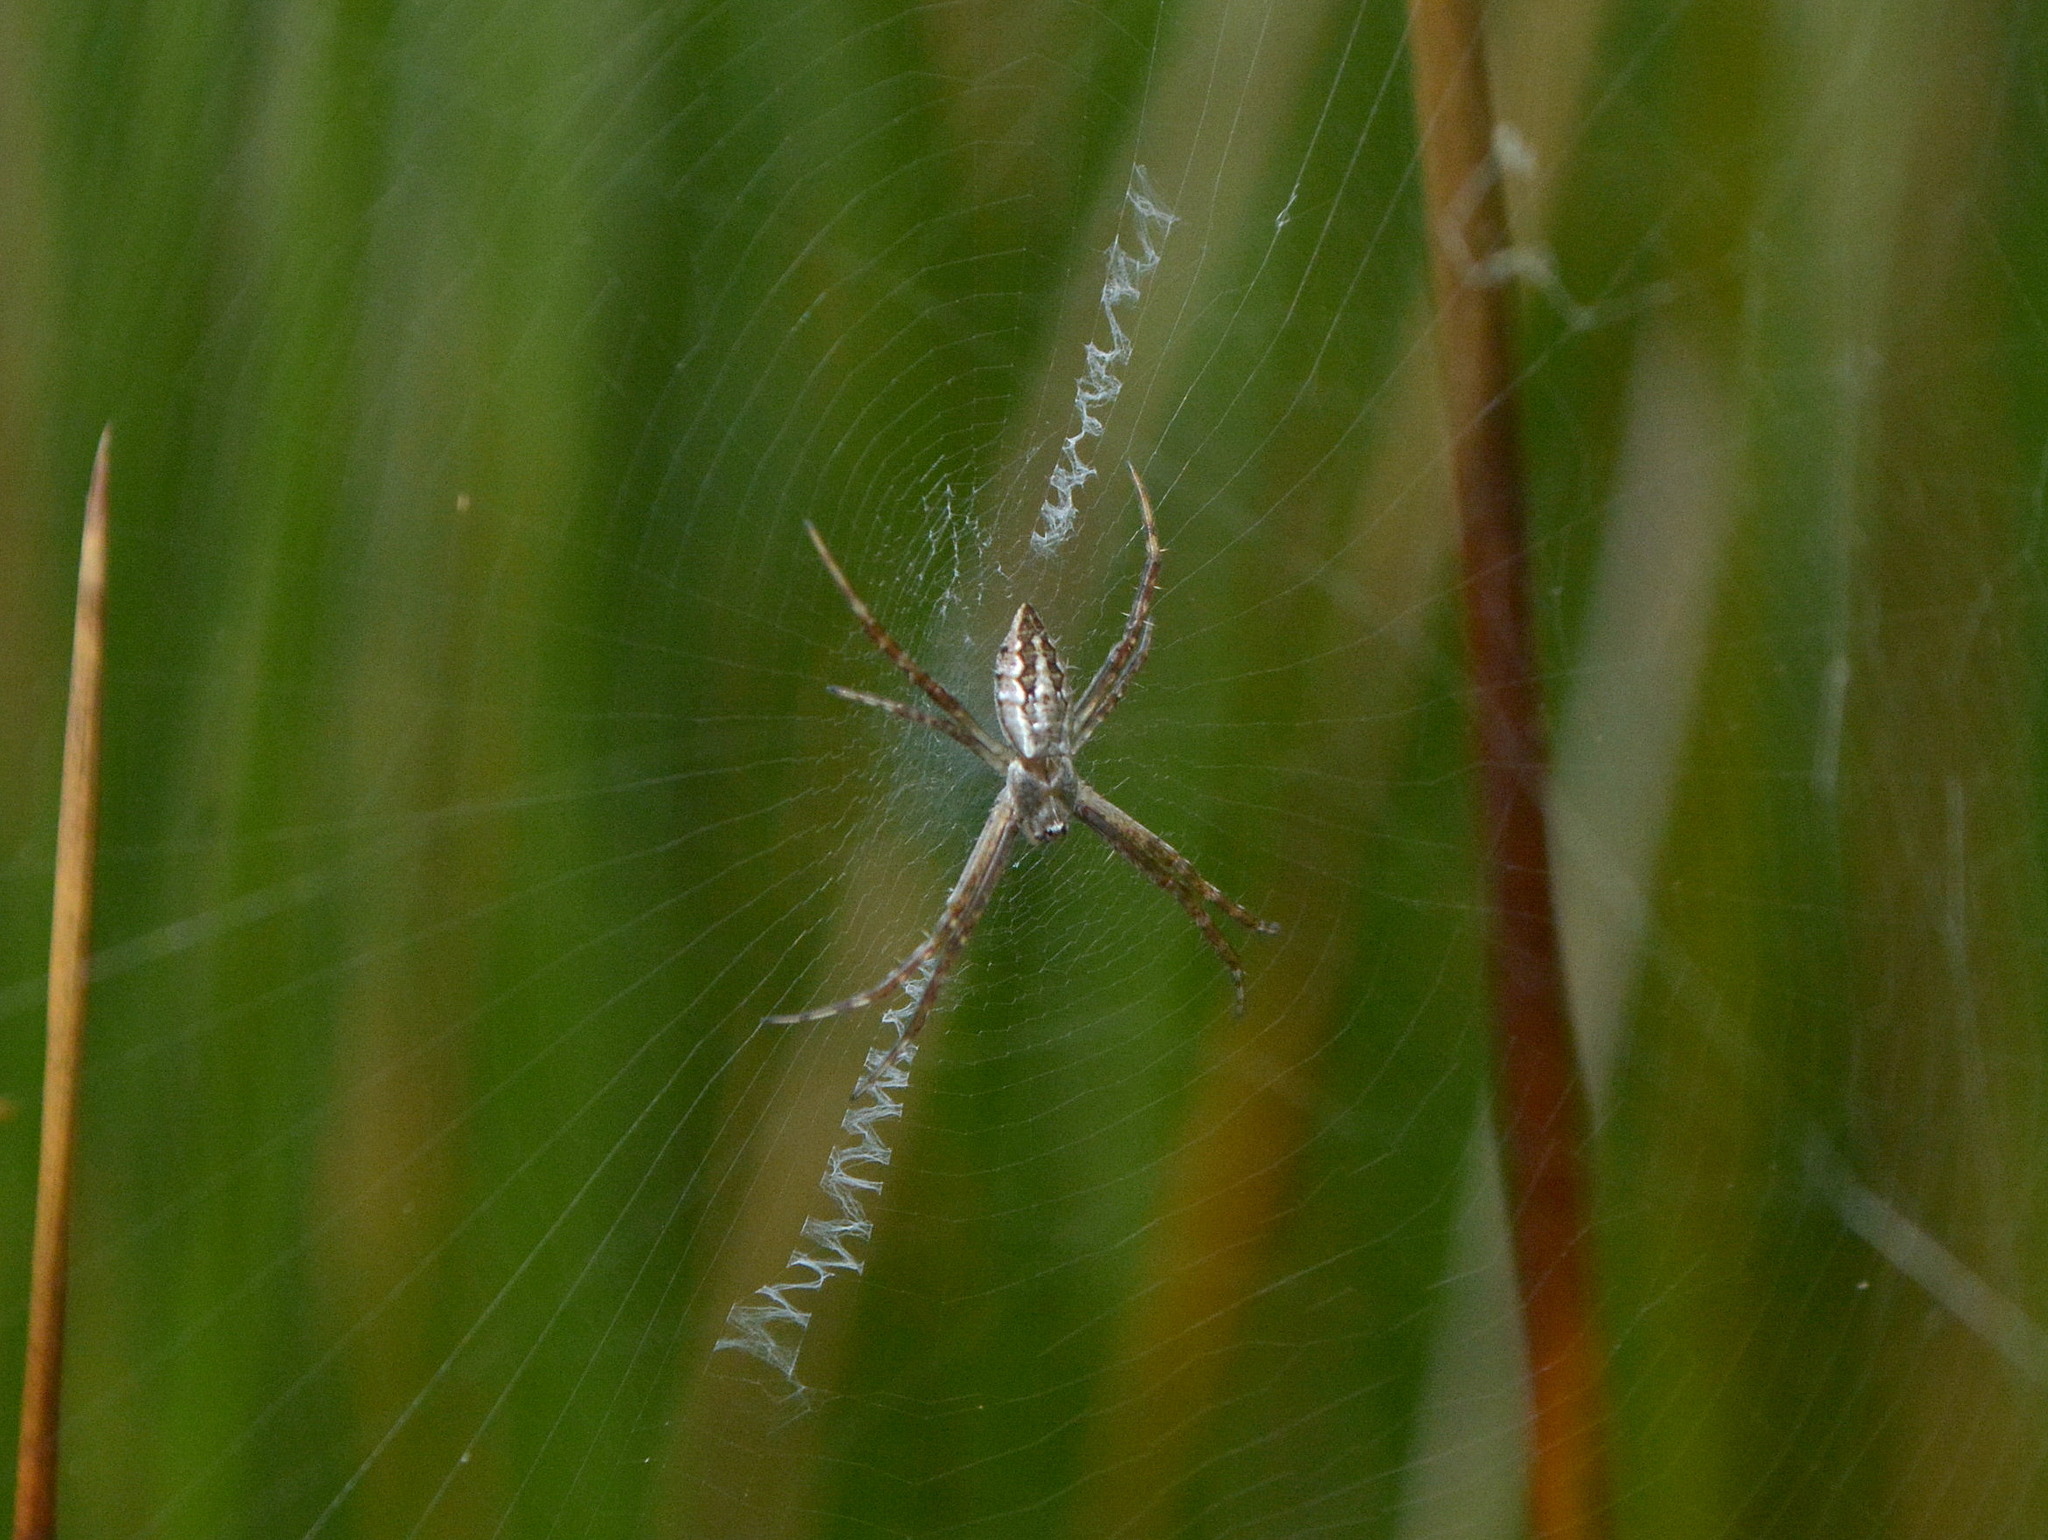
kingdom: Animalia
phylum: Arthropoda
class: Arachnida
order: Araneae
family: Araneidae
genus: Argiope
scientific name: Argiope argentata
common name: Orb weavers
